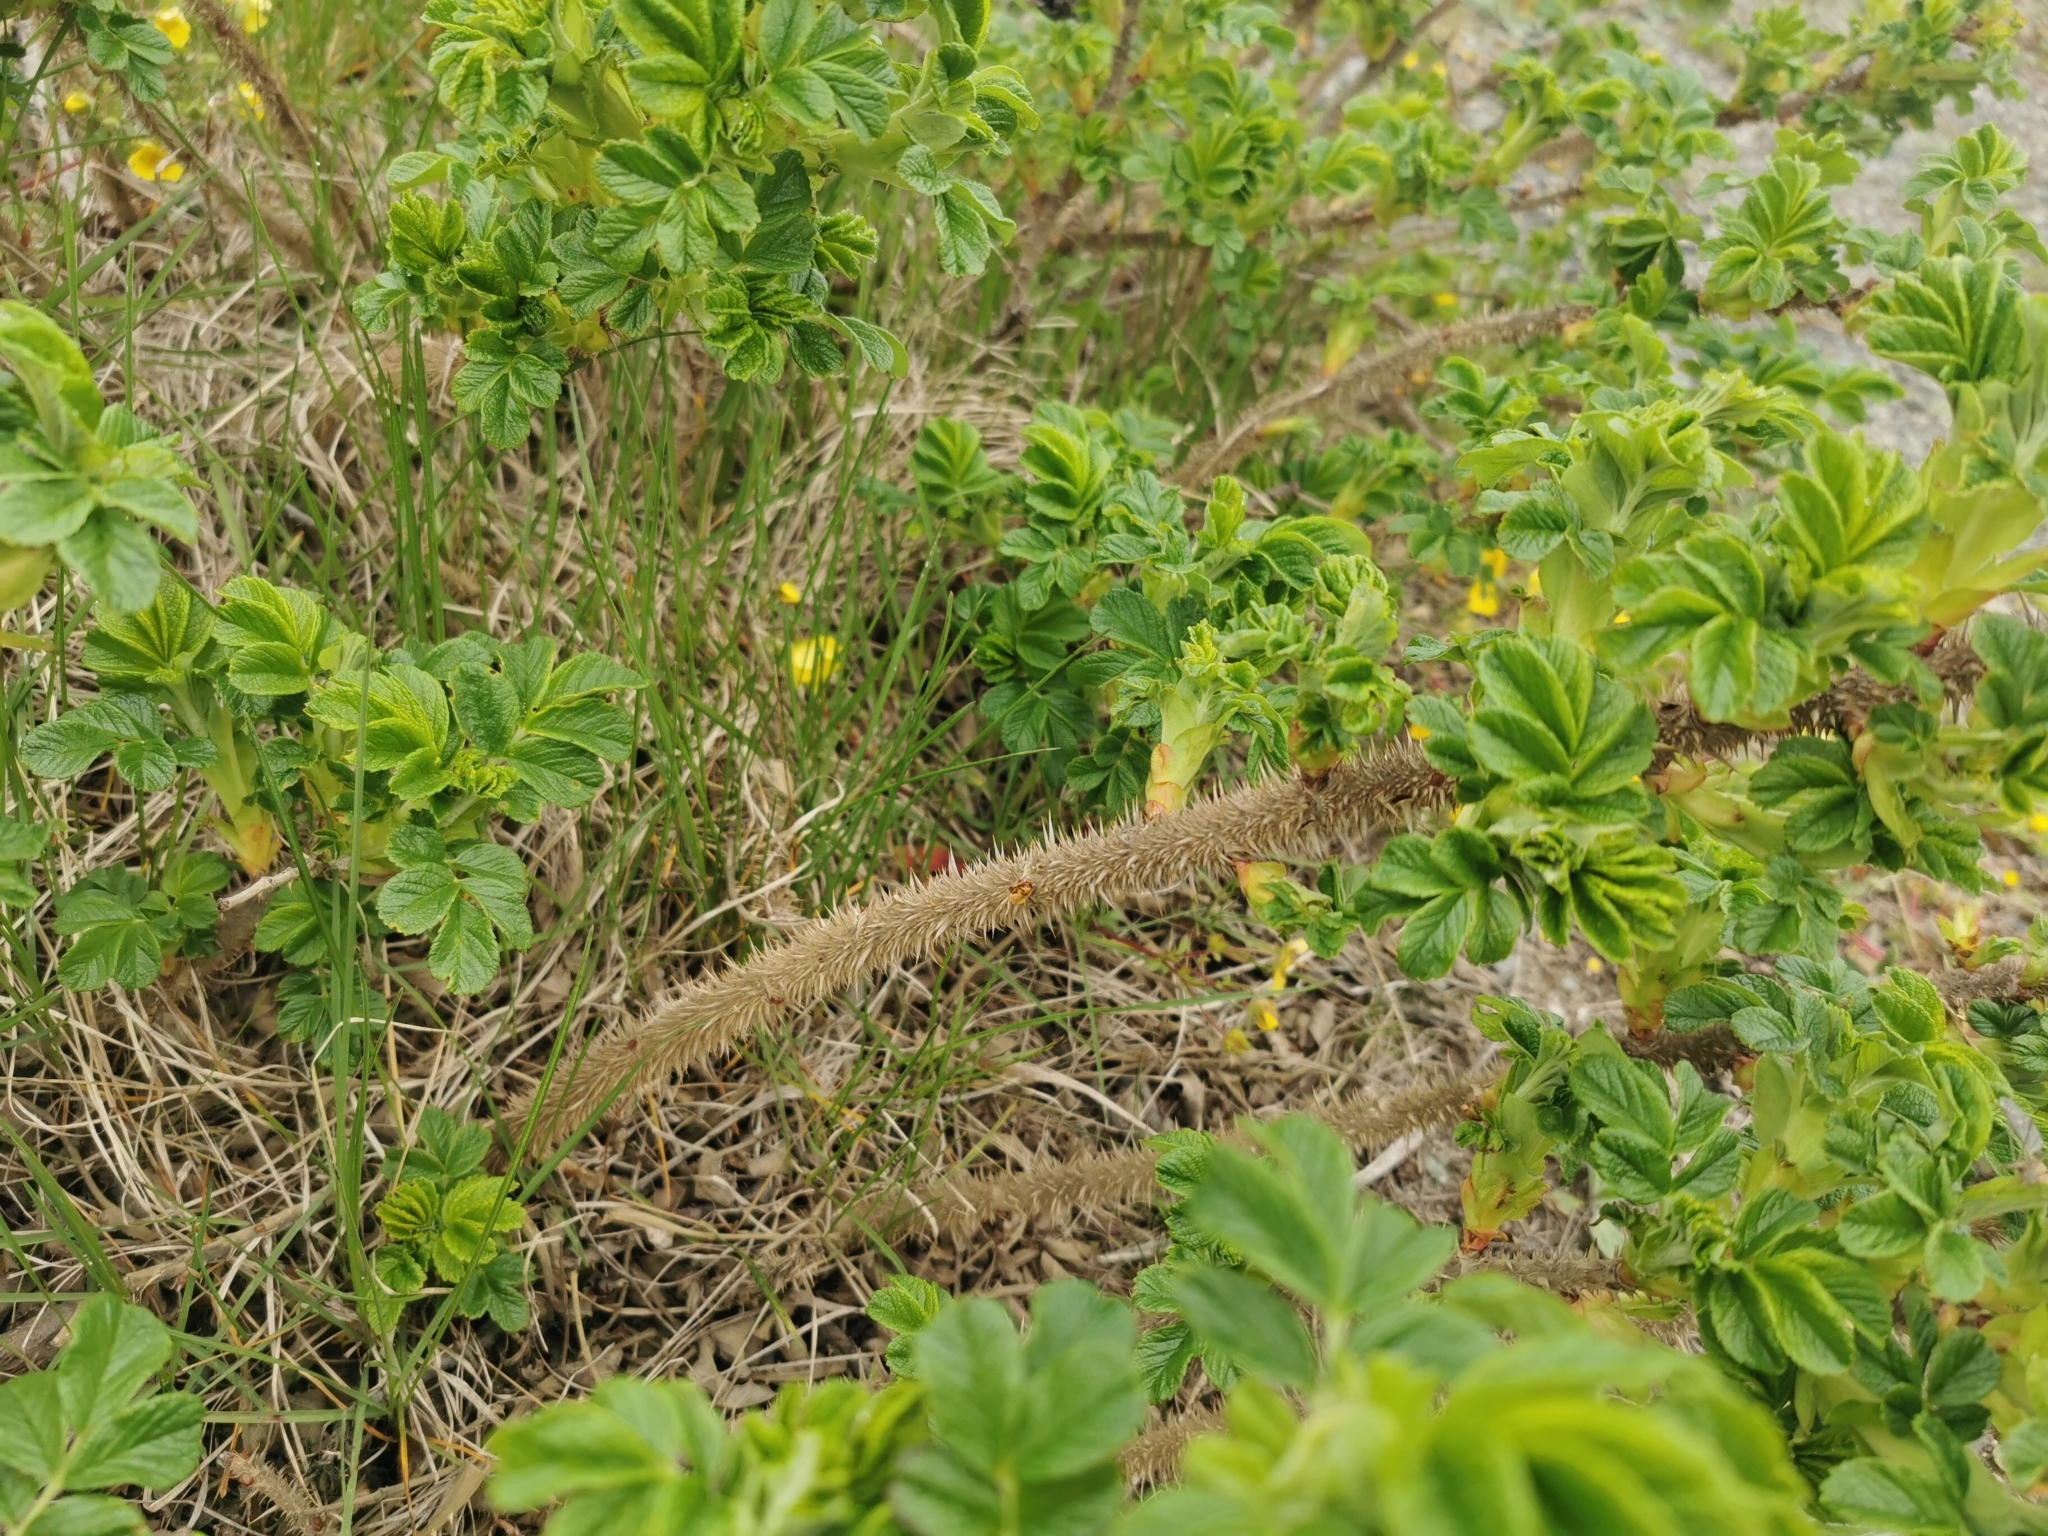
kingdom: Plantae
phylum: Tracheophyta
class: Magnoliopsida
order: Rosales
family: Rosaceae
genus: Rosa
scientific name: Rosa rugosa
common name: Japanese rose
